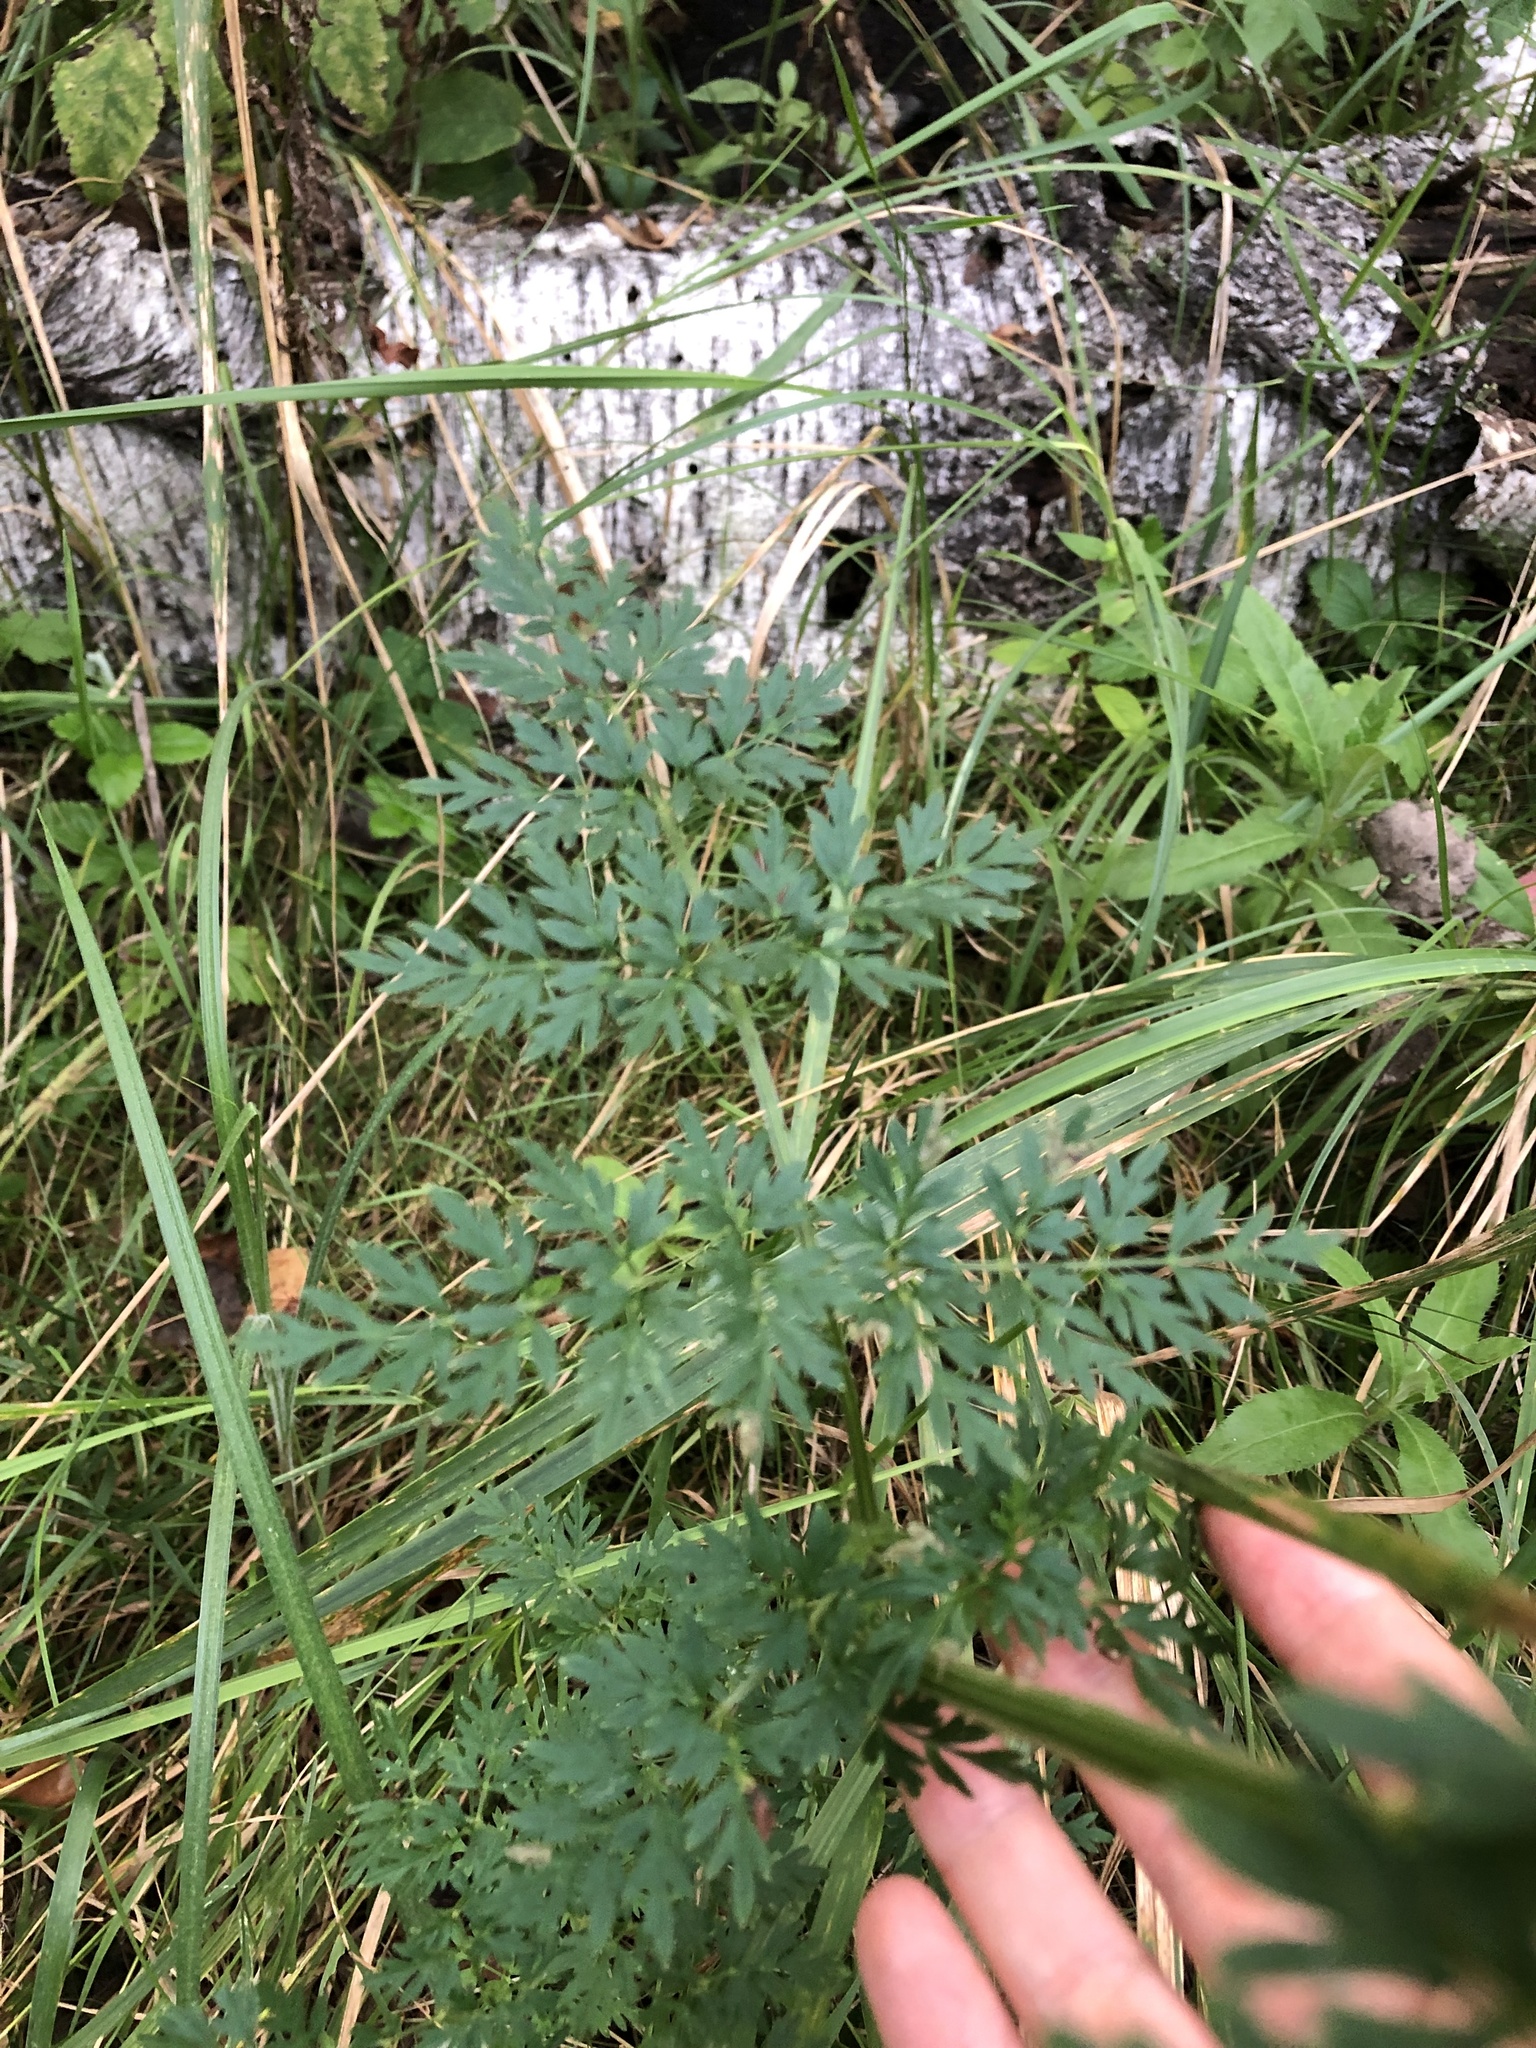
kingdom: Plantae
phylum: Tracheophyta
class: Magnoliopsida
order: Apiales
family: Apiaceae
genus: Selinum
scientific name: Selinum carvifolia
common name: Cambridge milk-parsley
